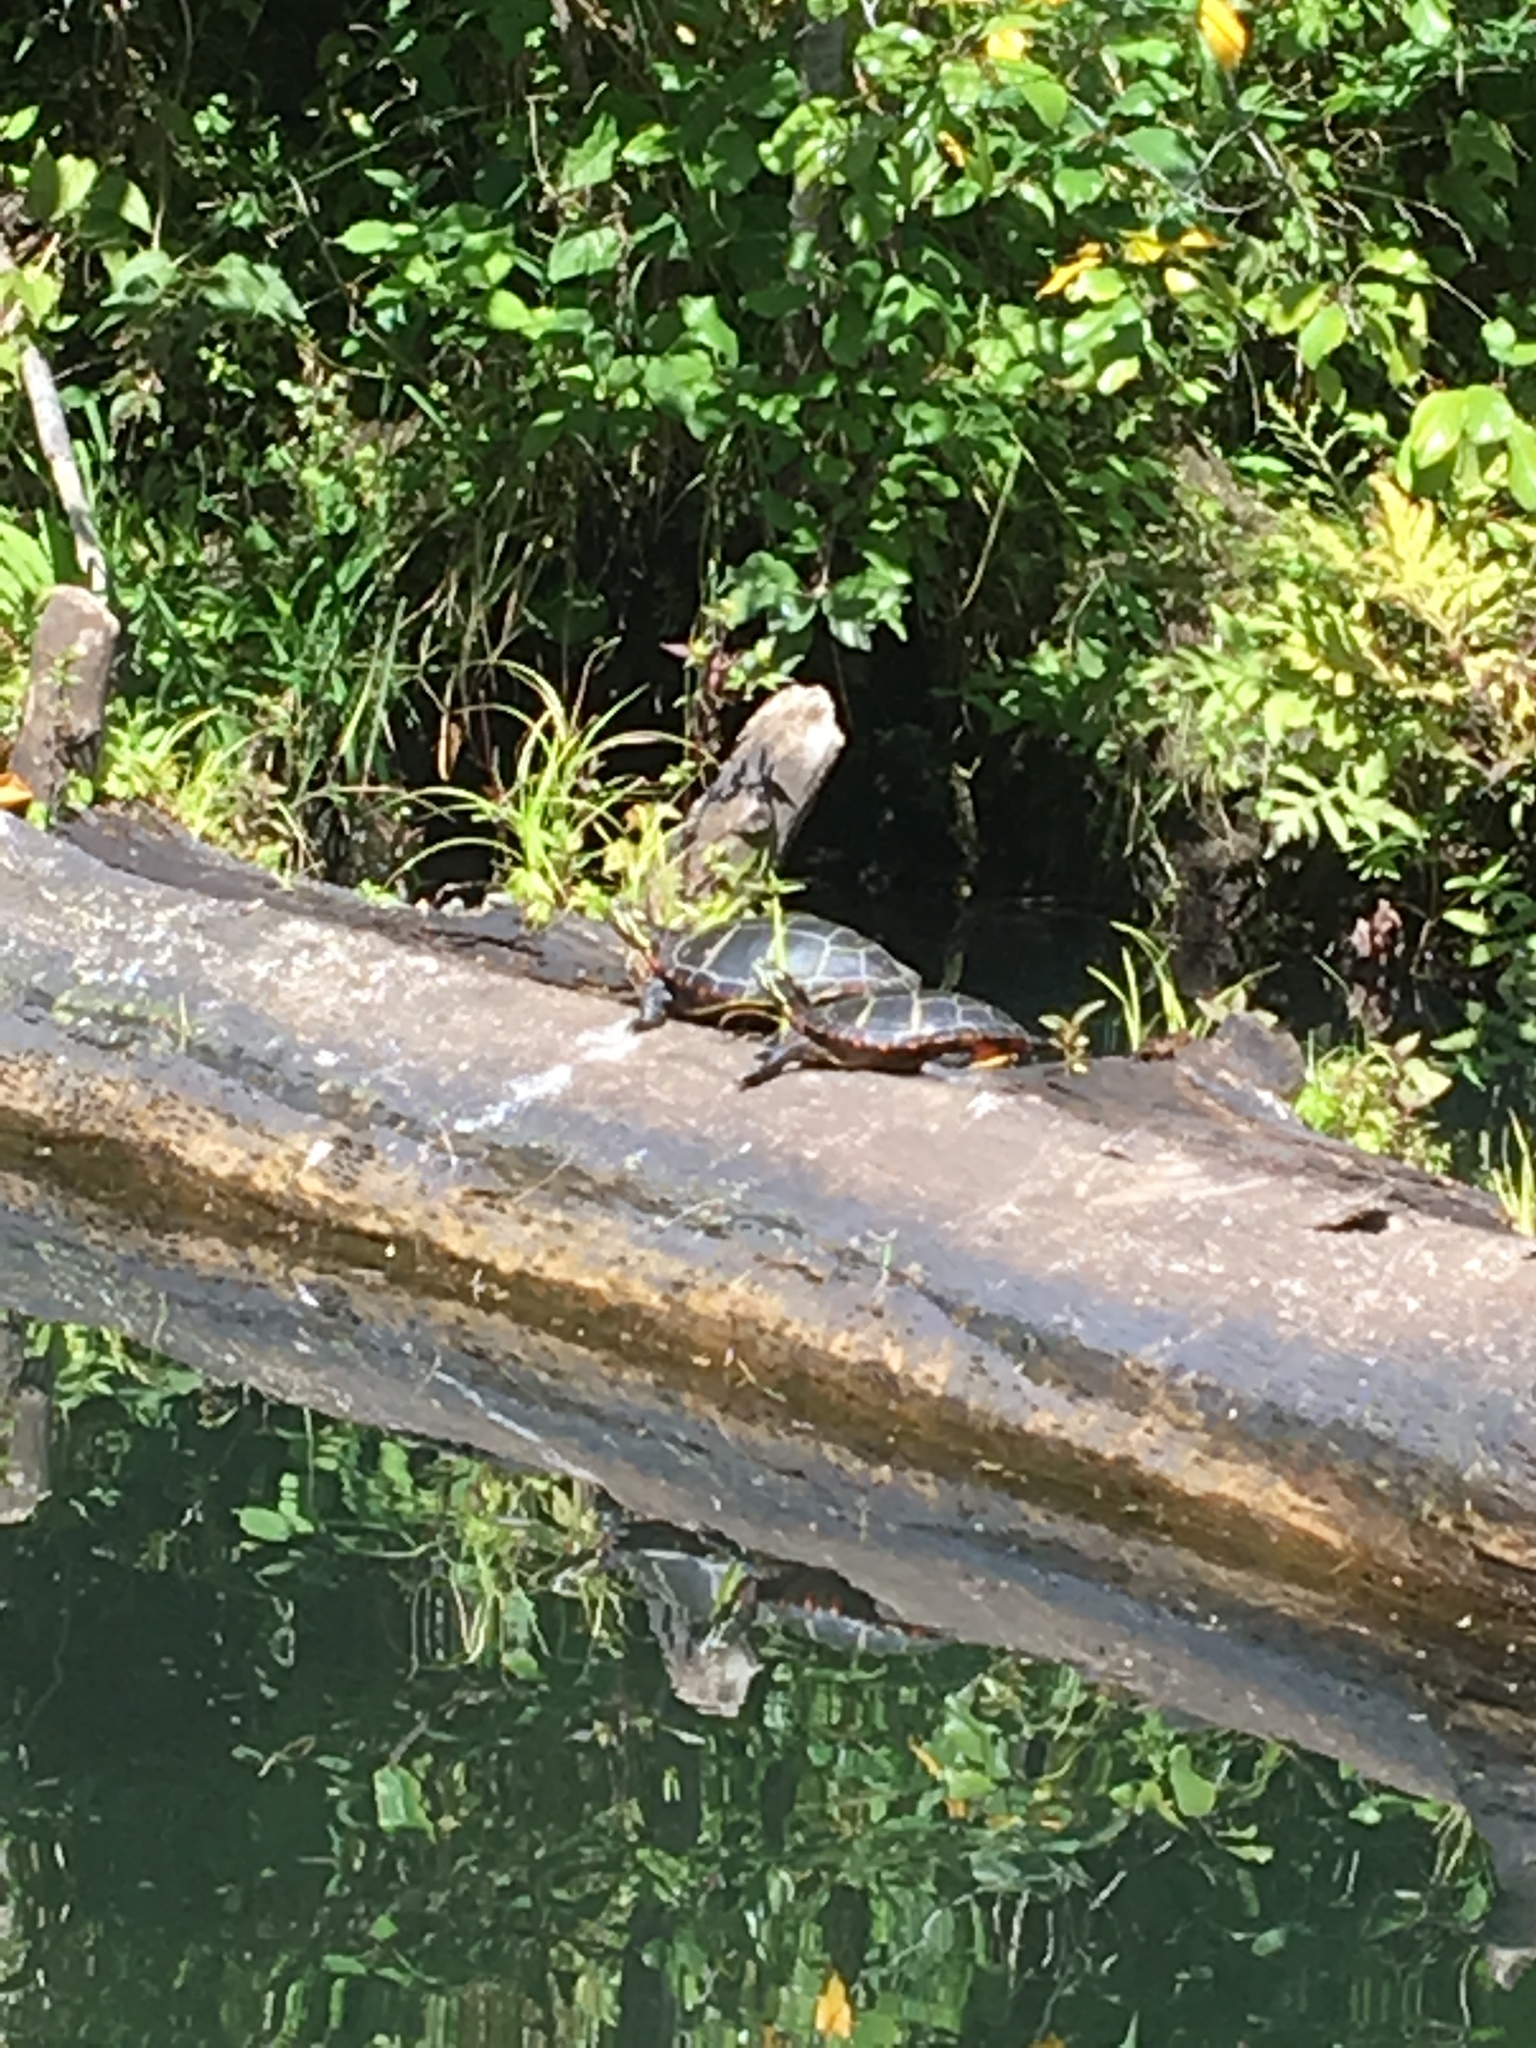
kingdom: Animalia
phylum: Chordata
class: Testudines
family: Emydidae
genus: Chrysemys
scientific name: Chrysemys picta
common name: Painted turtle
